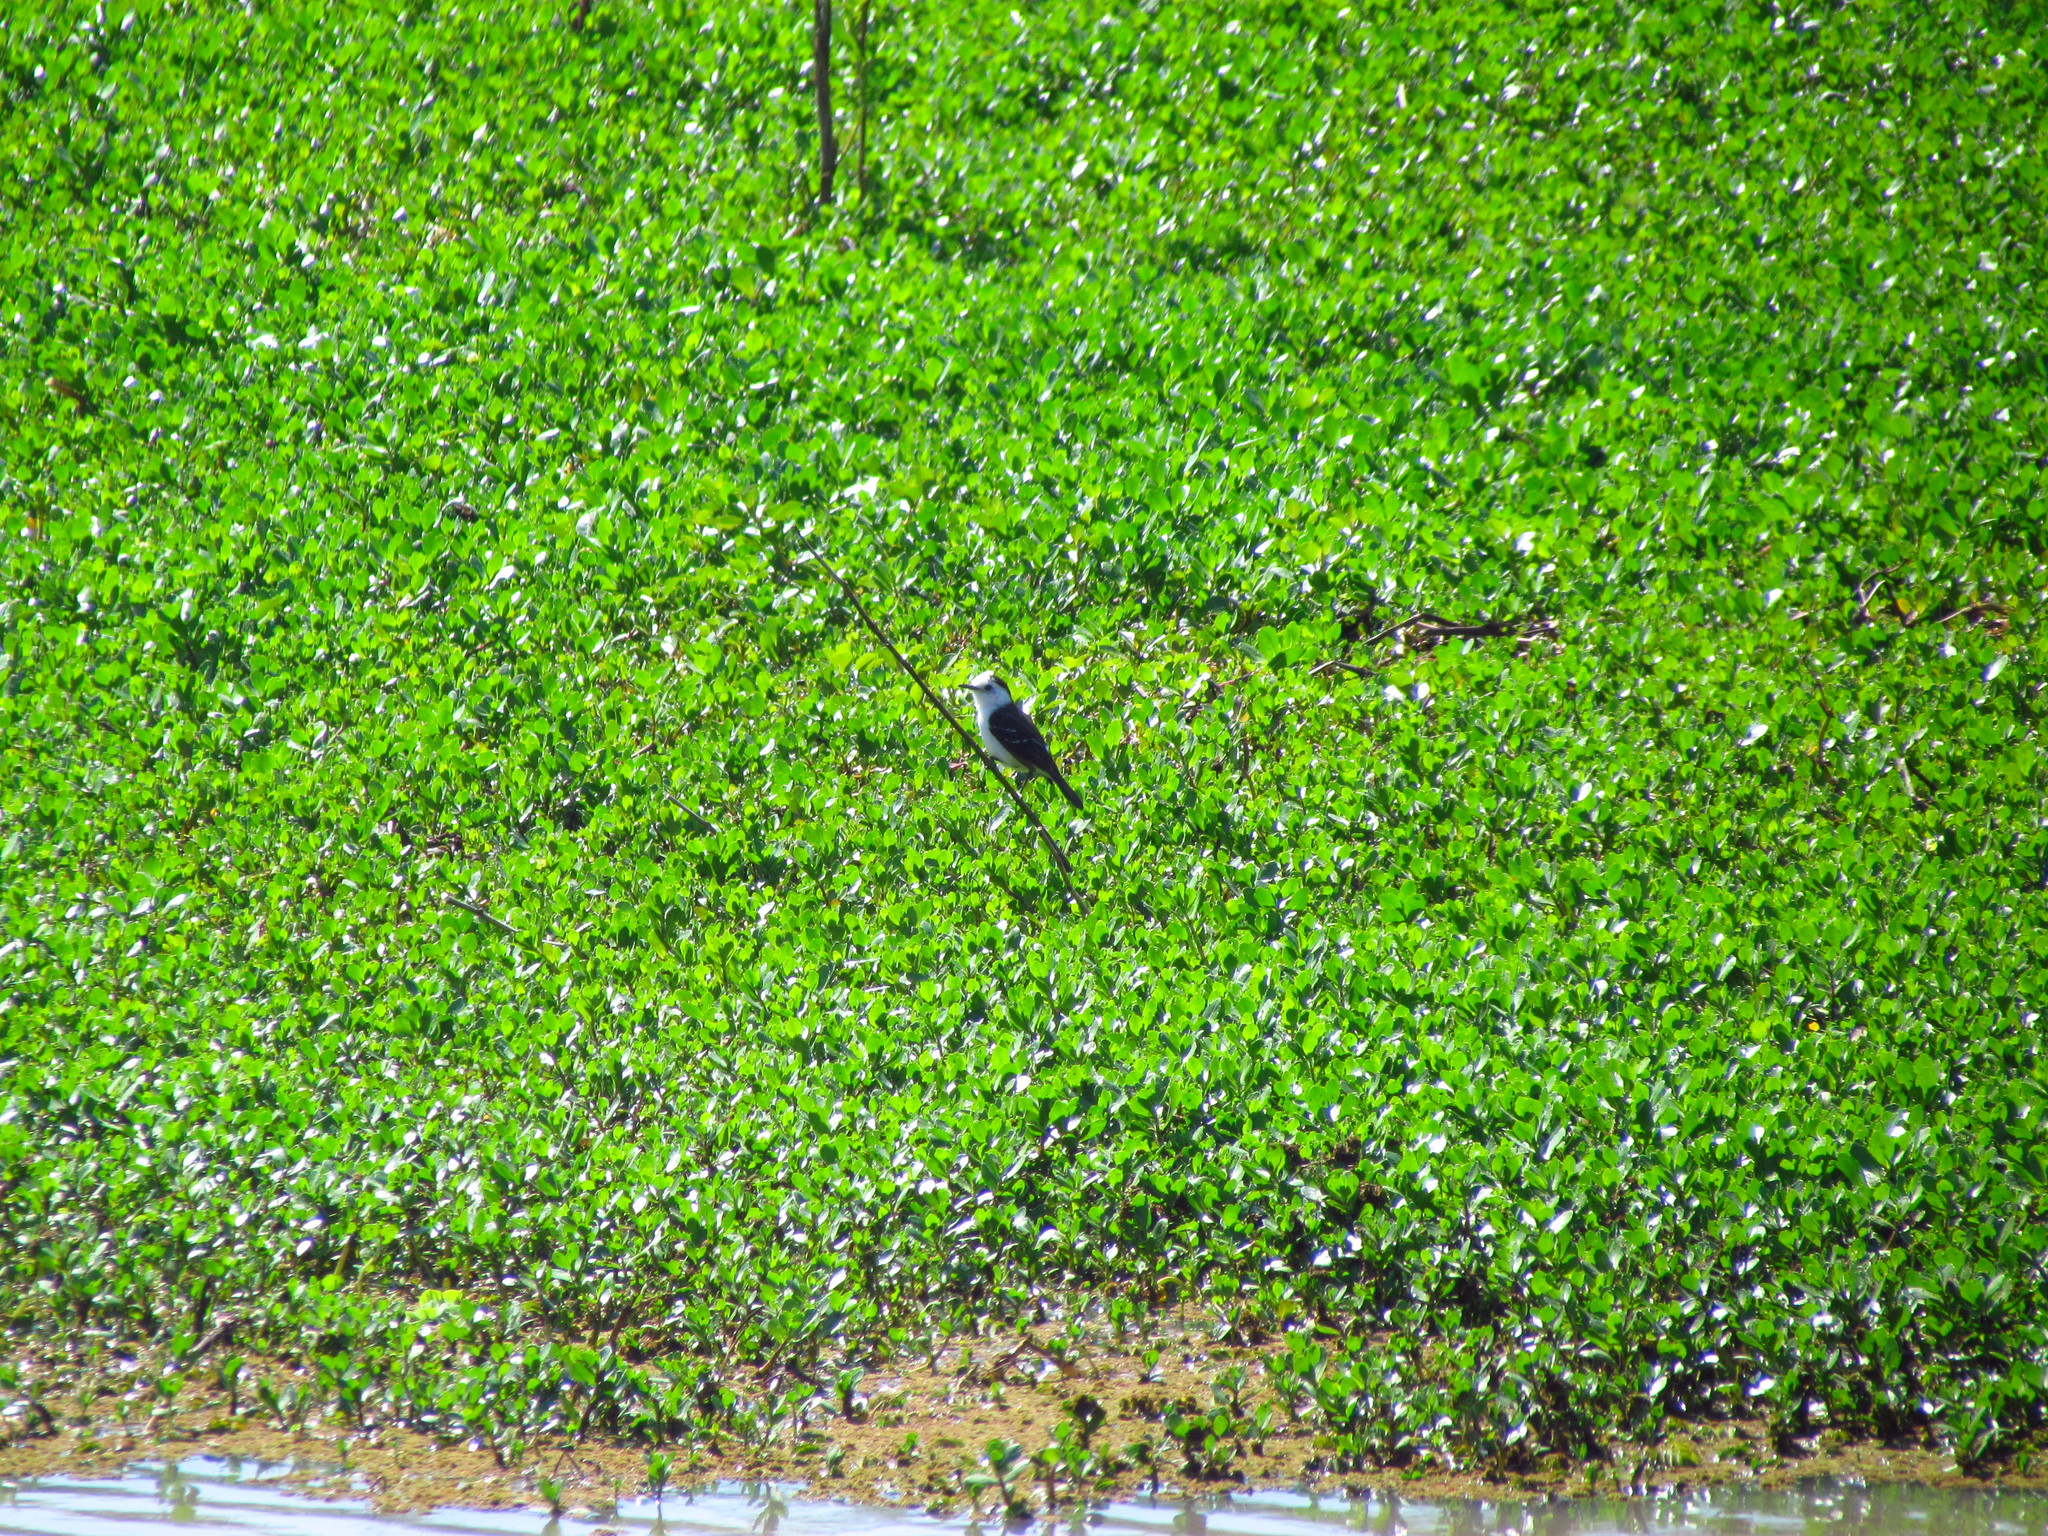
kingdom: Animalia
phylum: Chordata
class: Aves
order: Passeriformes
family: Tyrannidae
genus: Fluvicola
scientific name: Fluvicola pica
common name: Pied water-tyrant
